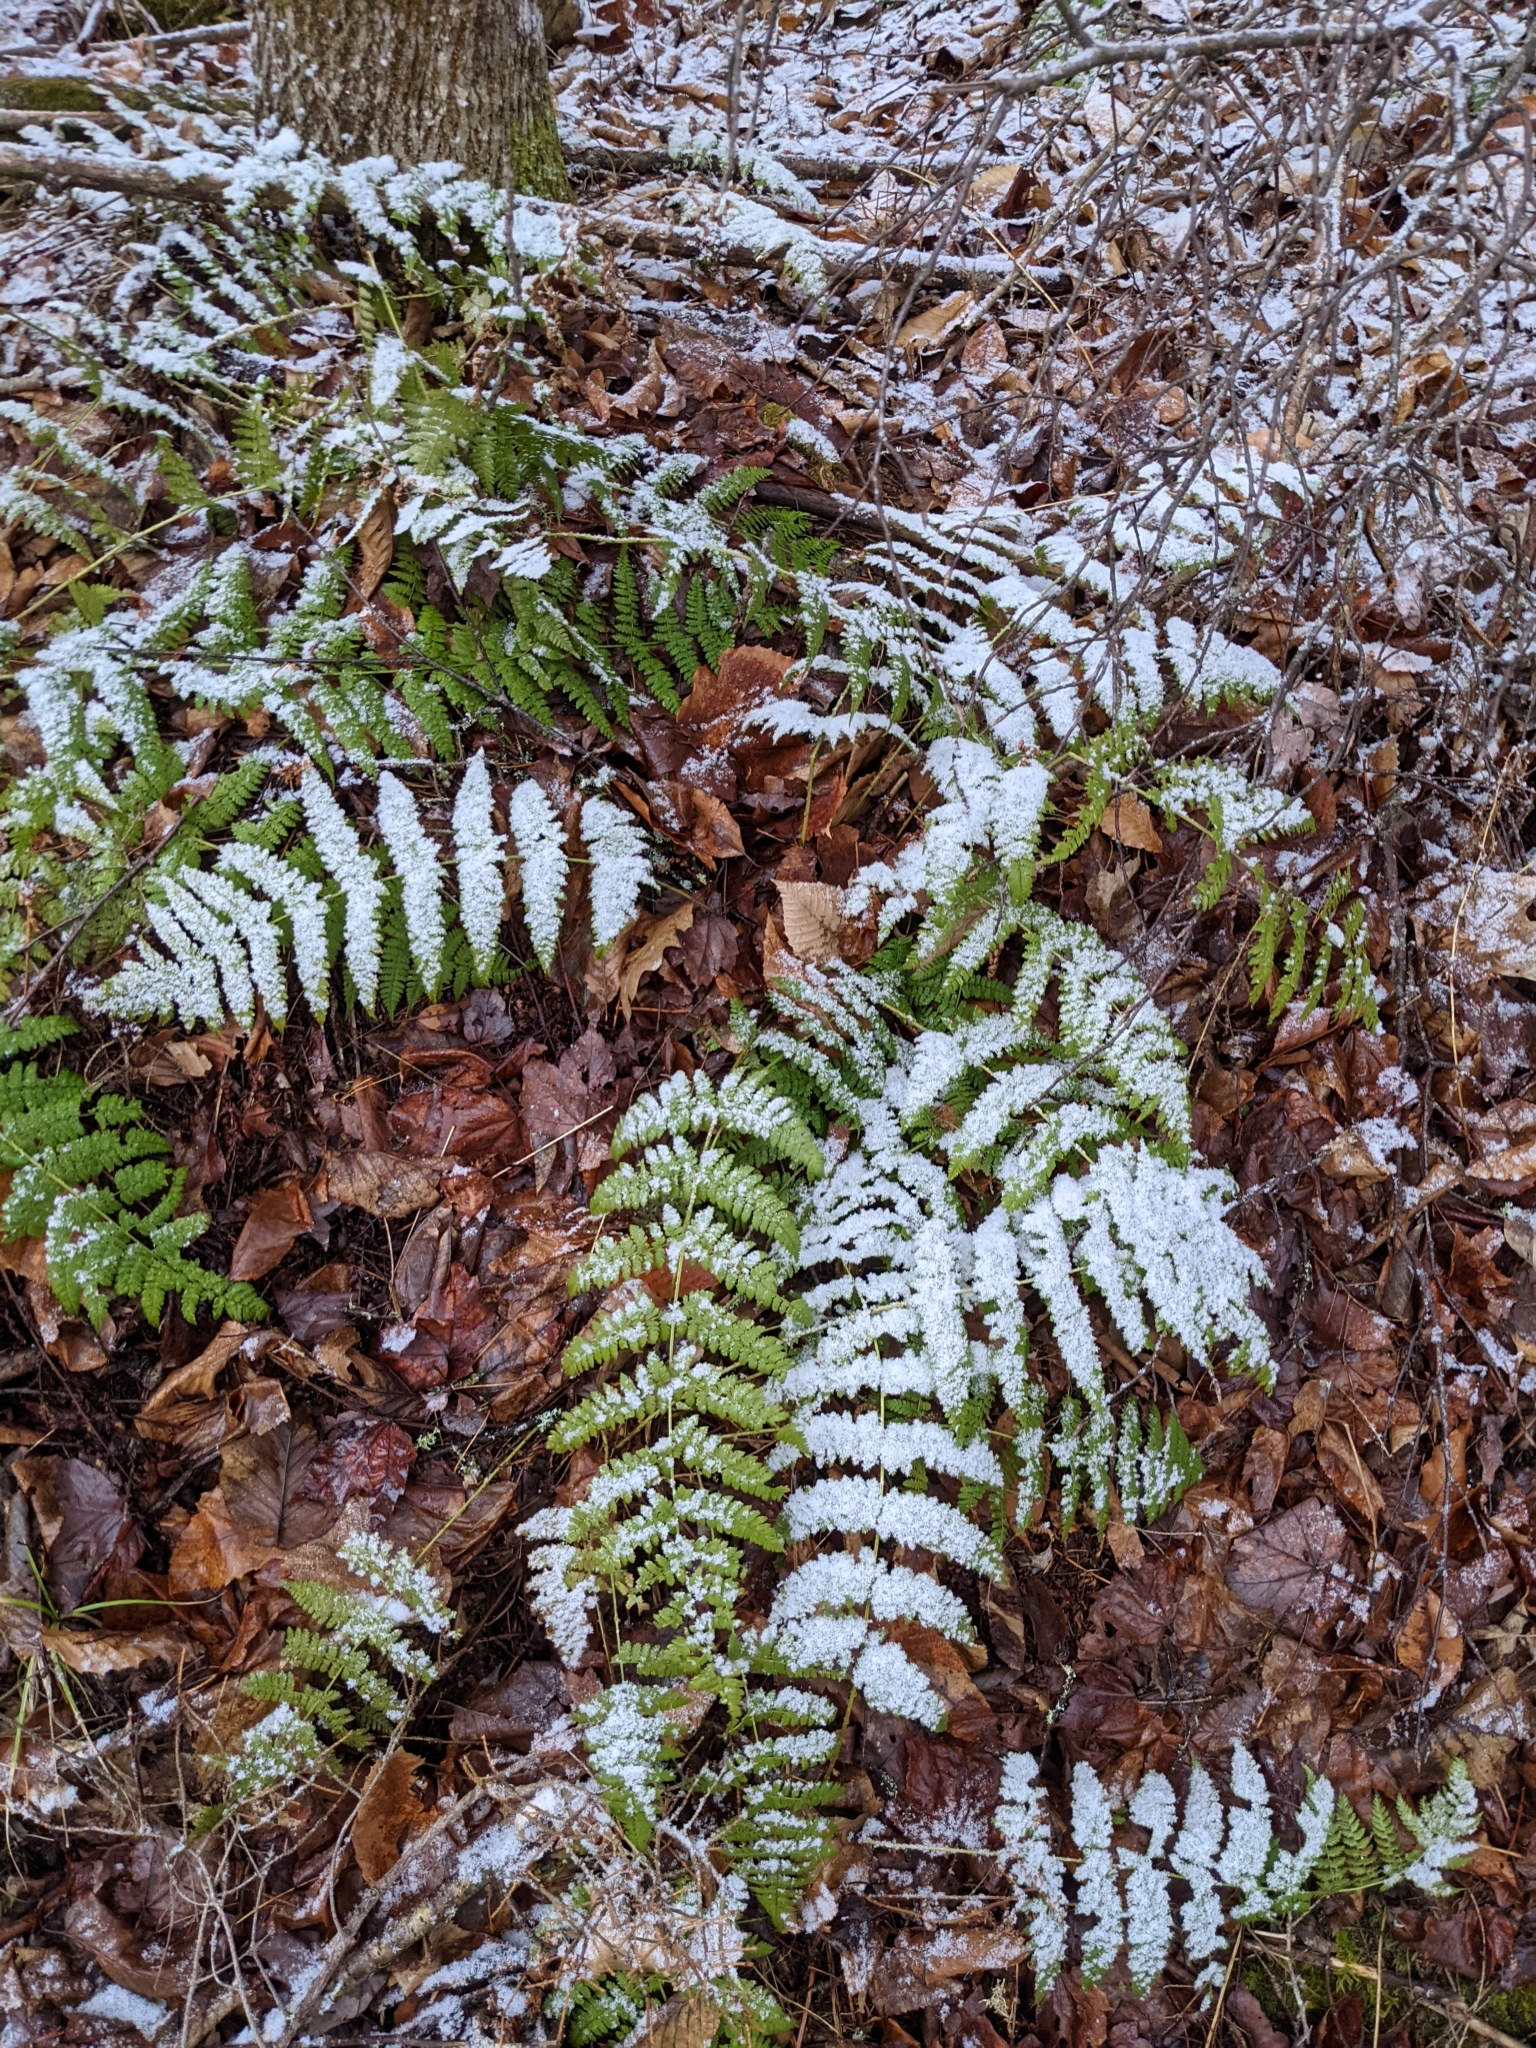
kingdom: Plantae
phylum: Tracheophyta
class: Polypodiopsida
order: Polypodiales
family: Dryopteridaceae
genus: Dryopteris
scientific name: Dryopteris intermedia
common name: Evergreen wood fern
